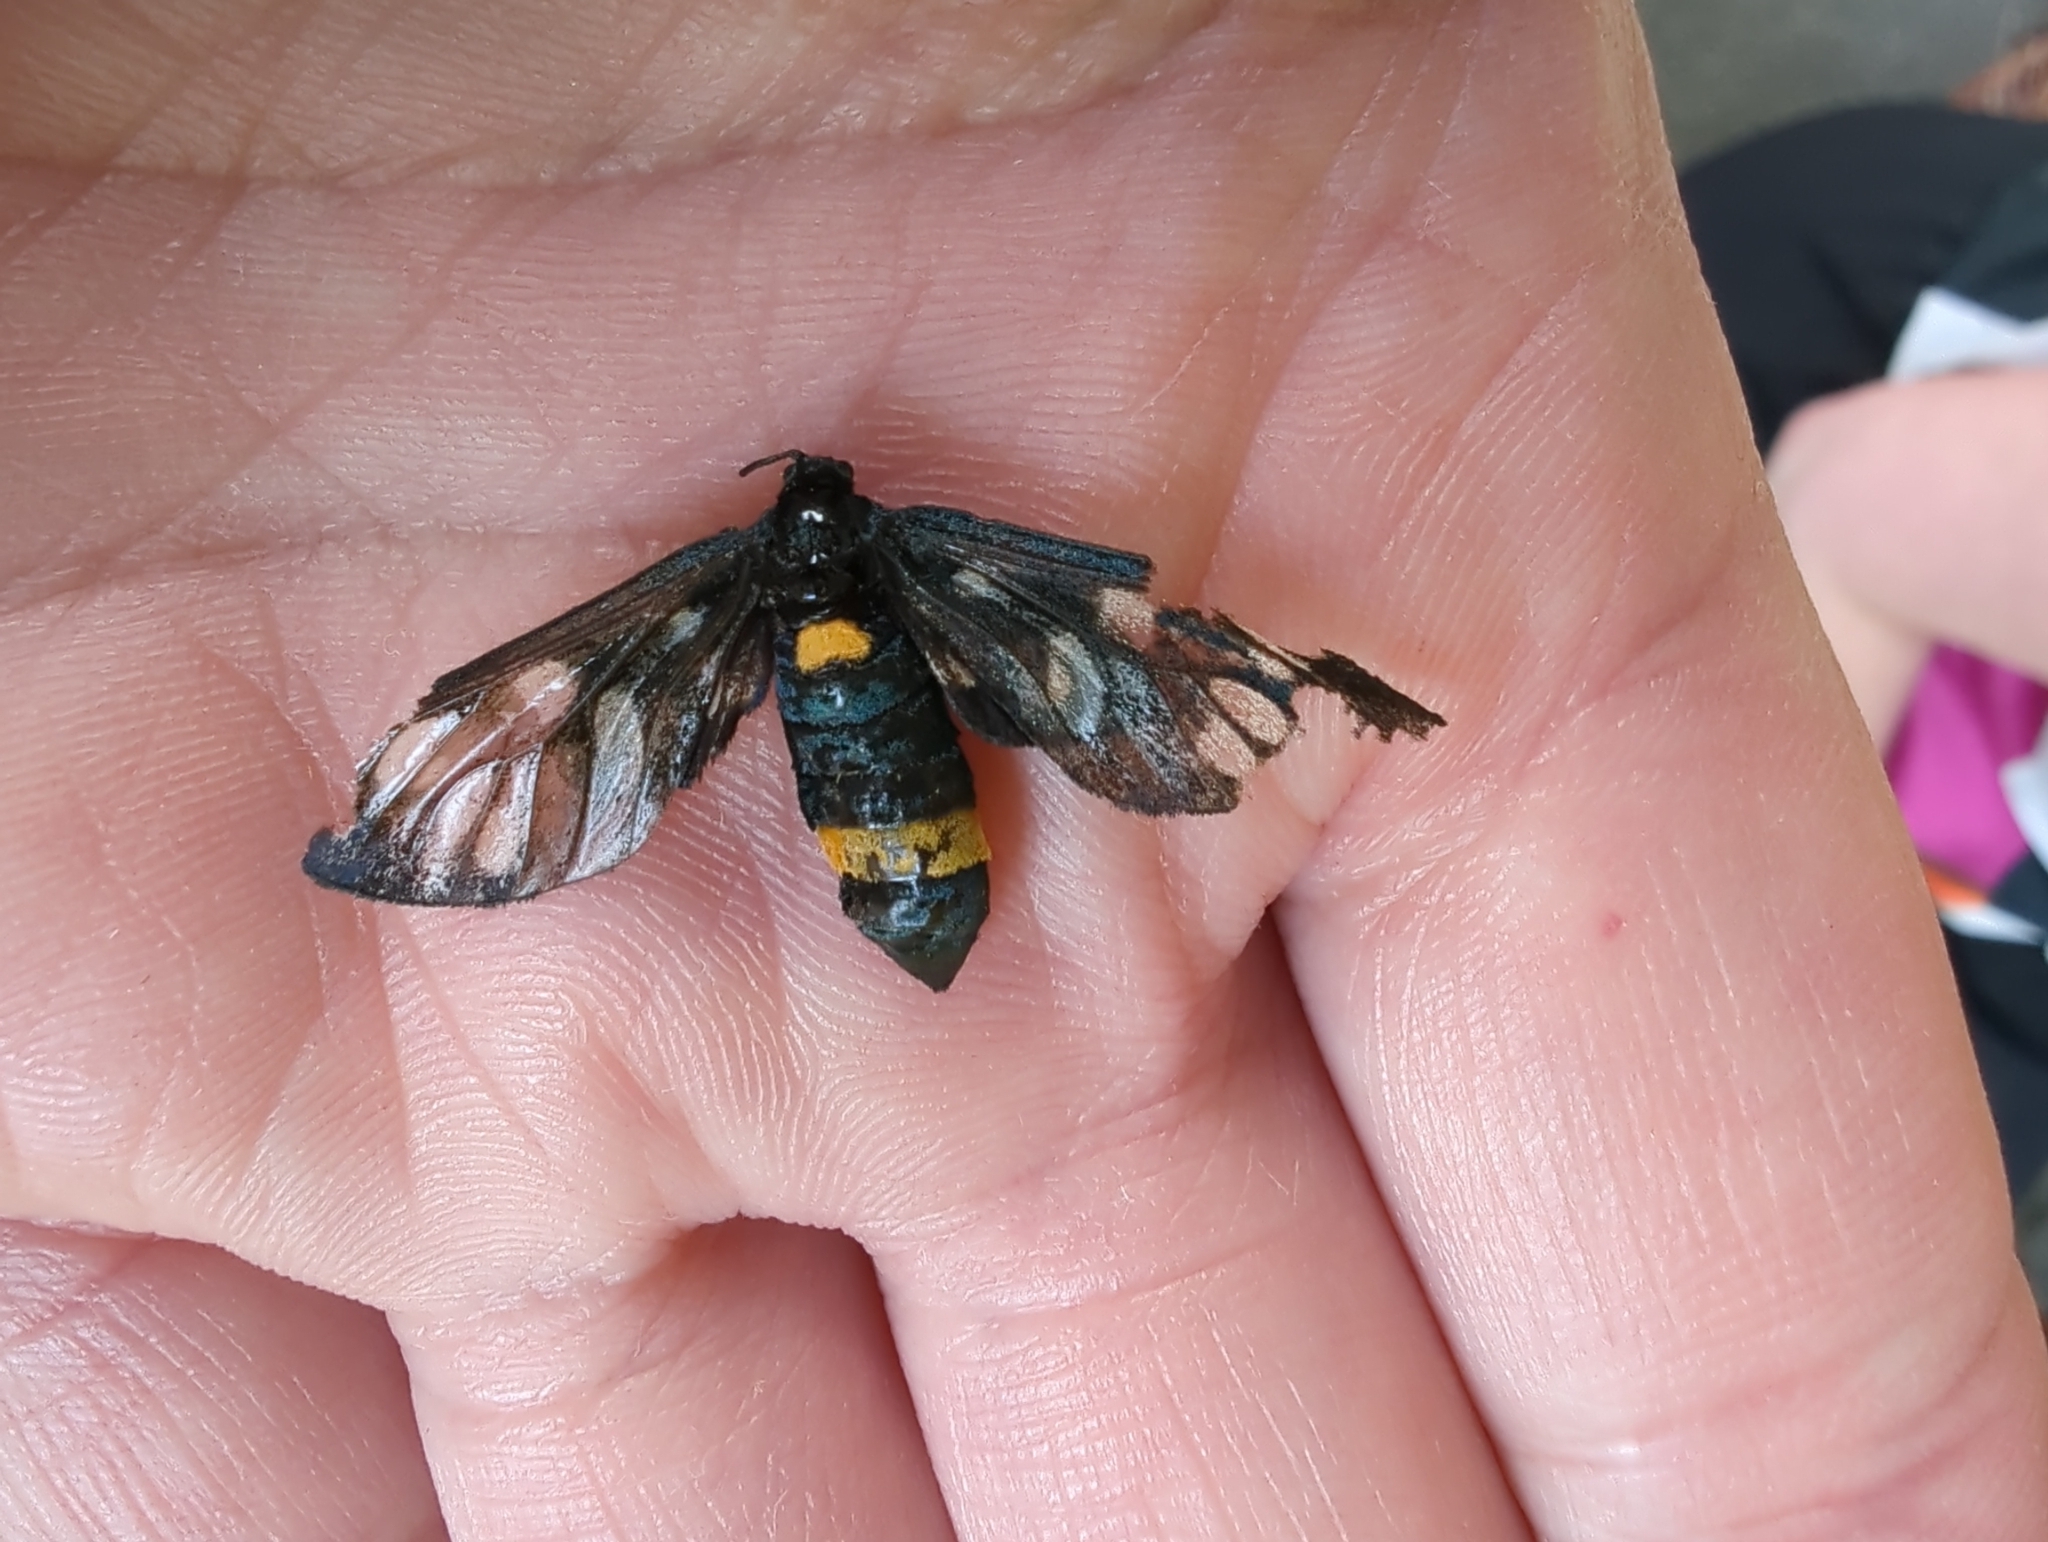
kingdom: Animalia
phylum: Arthropoda
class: Insecta
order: Lepidoptera
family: Erebidae
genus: Amata
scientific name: Amata phegea
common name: Nine-spotted
